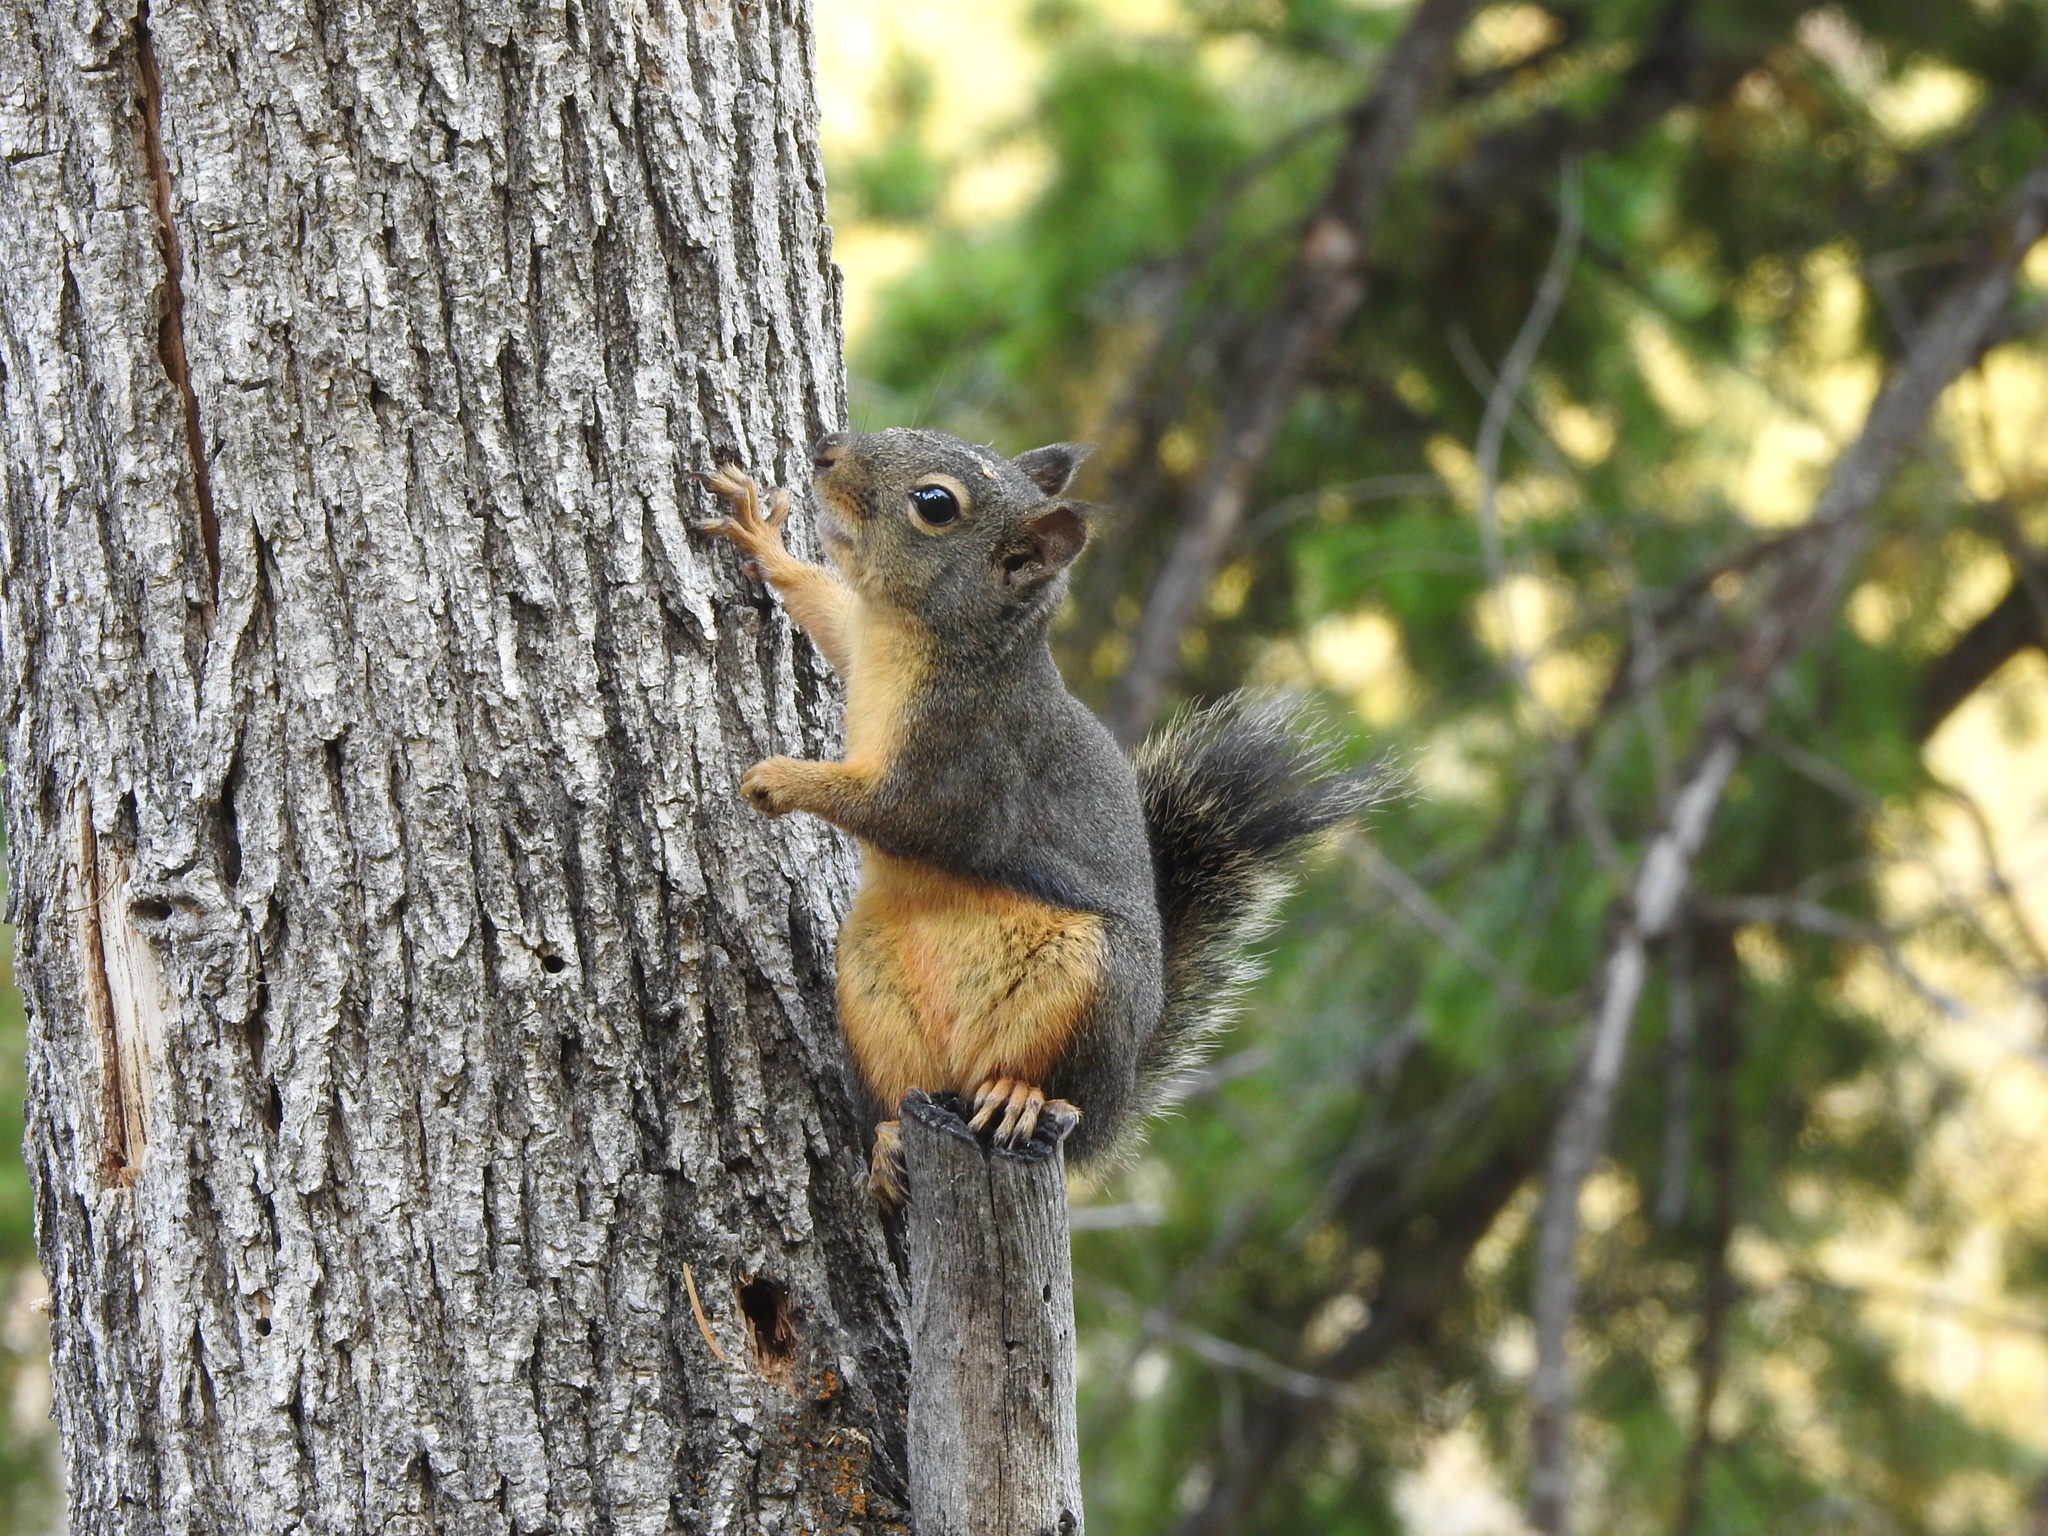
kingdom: Animalia
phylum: Chordata
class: Mammalia
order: Rodentia
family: Sciuridae
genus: Tamiasciurus
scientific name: Tamiasciurus douglasii
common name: Douglas's squirrel
